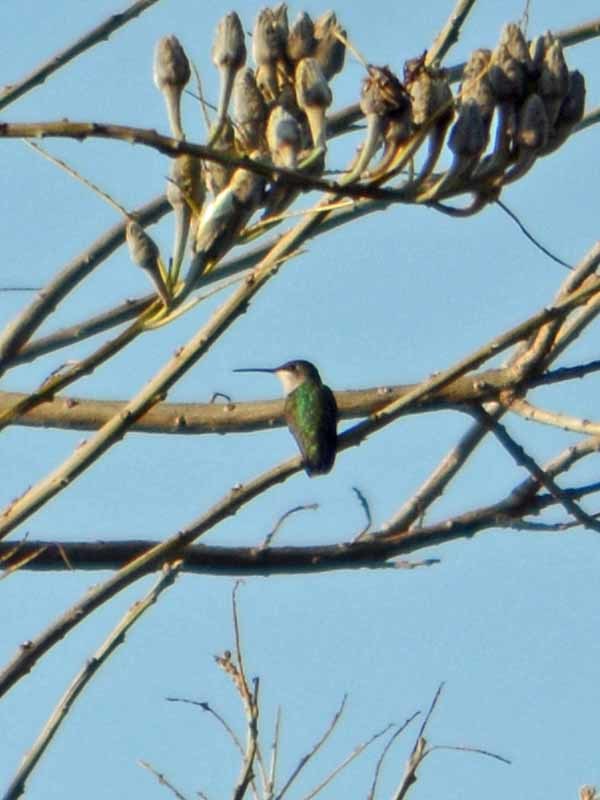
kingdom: Animalia
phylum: Chordata
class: Aves
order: Apodiformes
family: Trochilidae
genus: Archilochus
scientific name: Archilochus colubris
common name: Ruby-throated hummingbird
